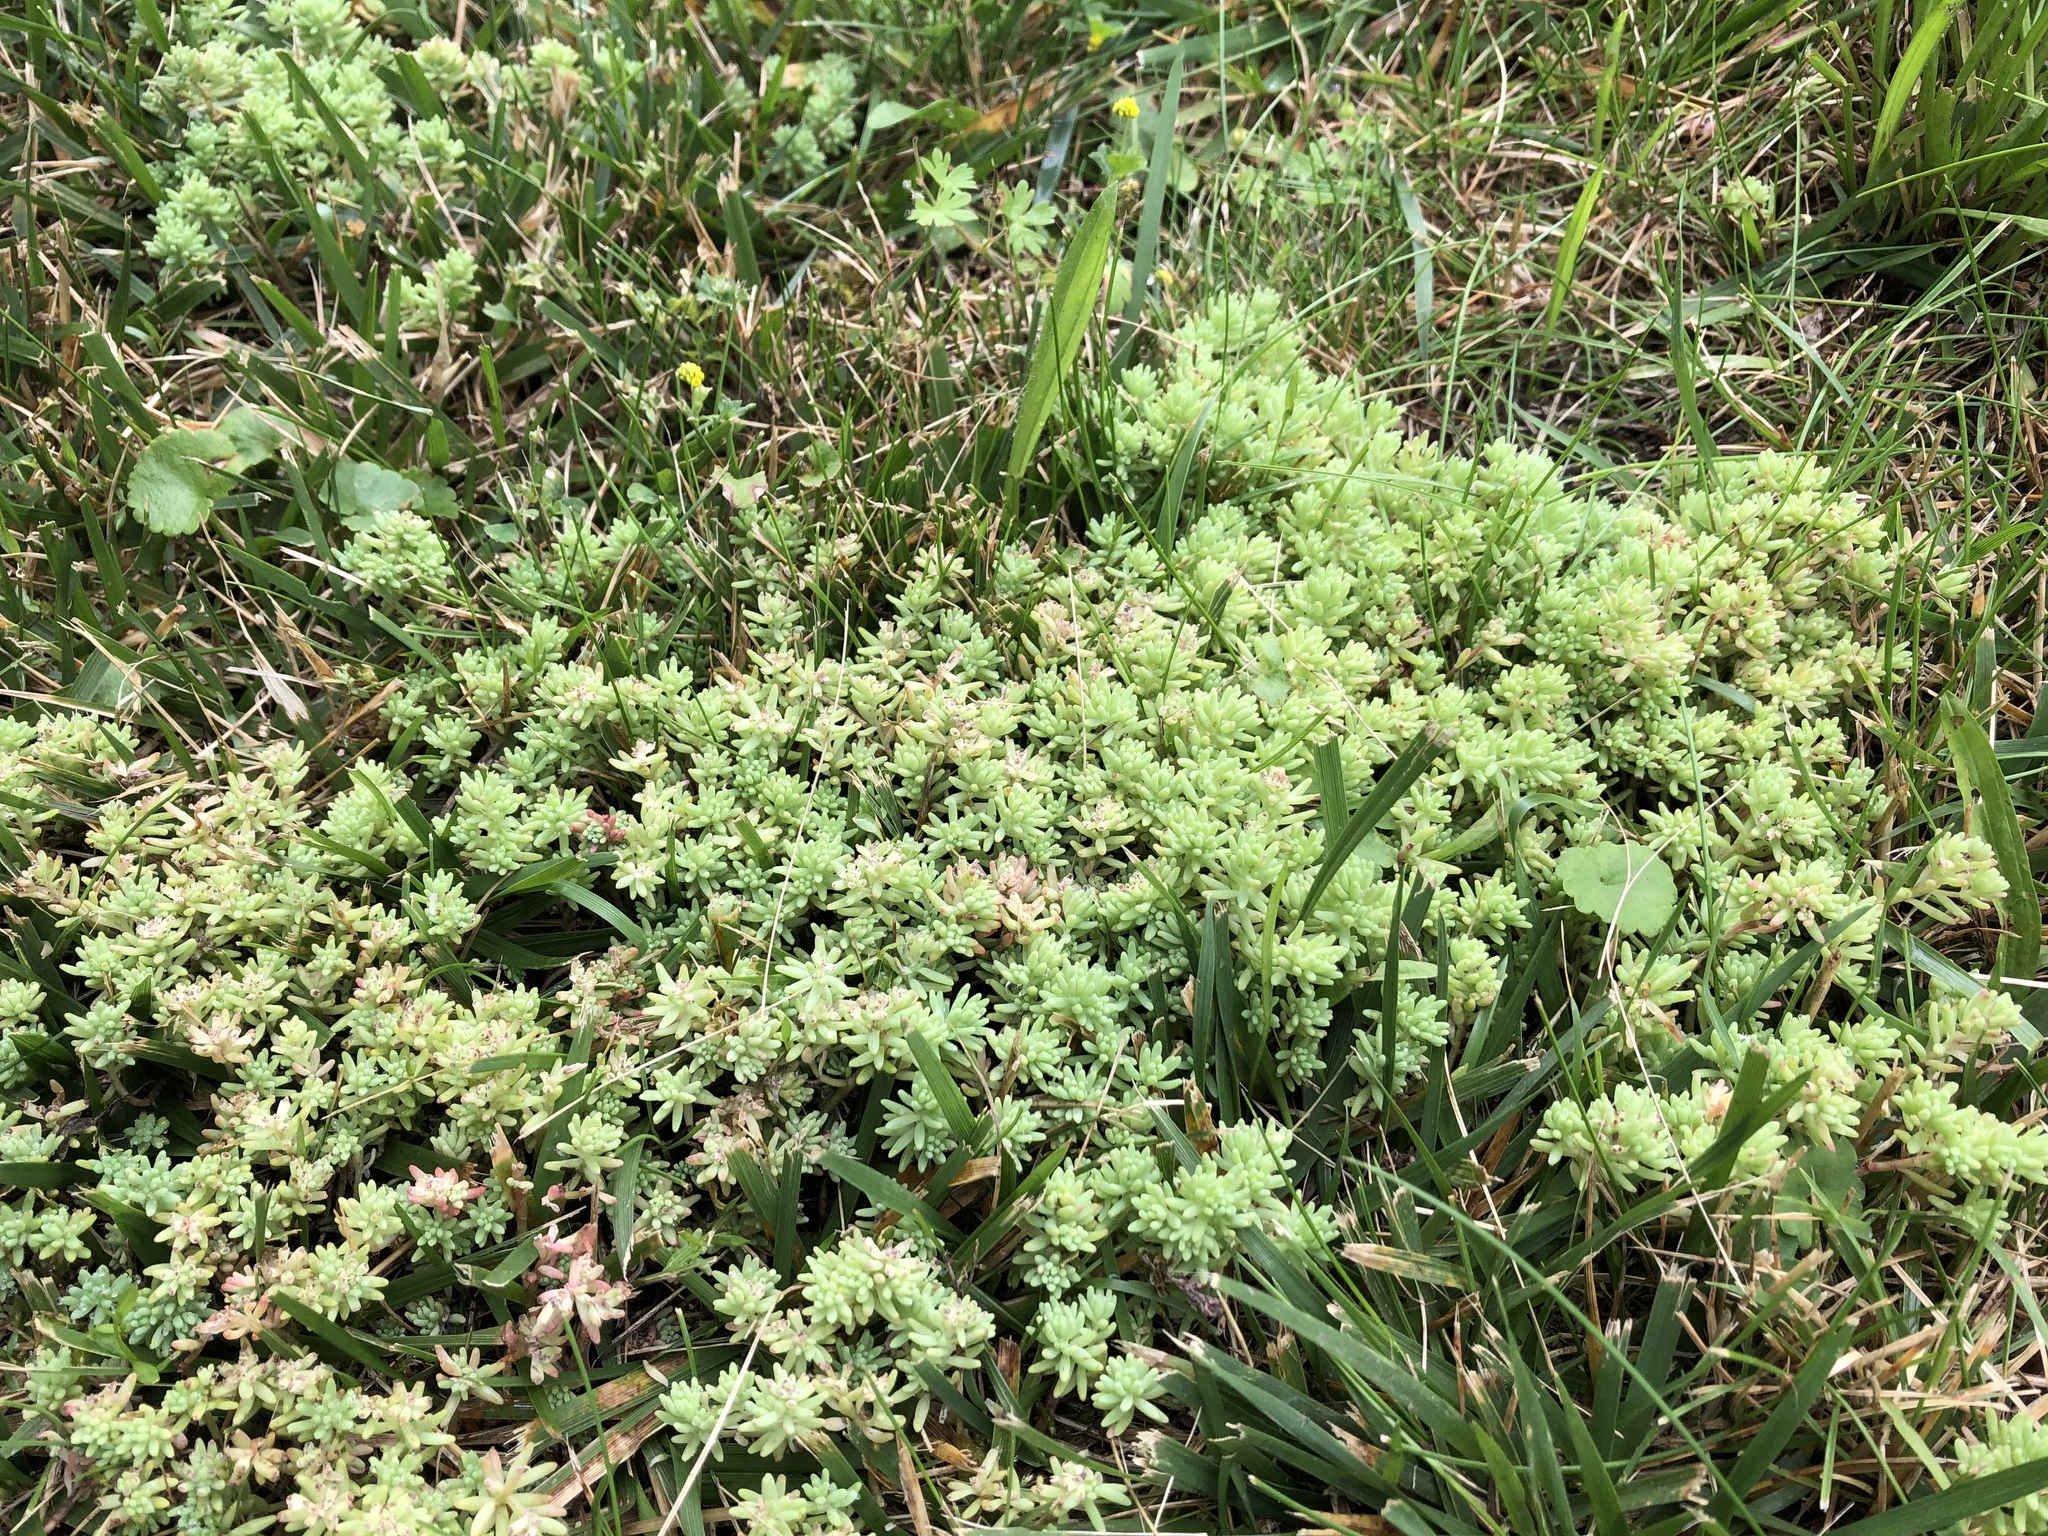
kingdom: Plantae
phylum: Tracheophyta
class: Magnoliopsida
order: Saxifragales
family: Crassulaceae
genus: Sedum
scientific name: Sedum pallidum
